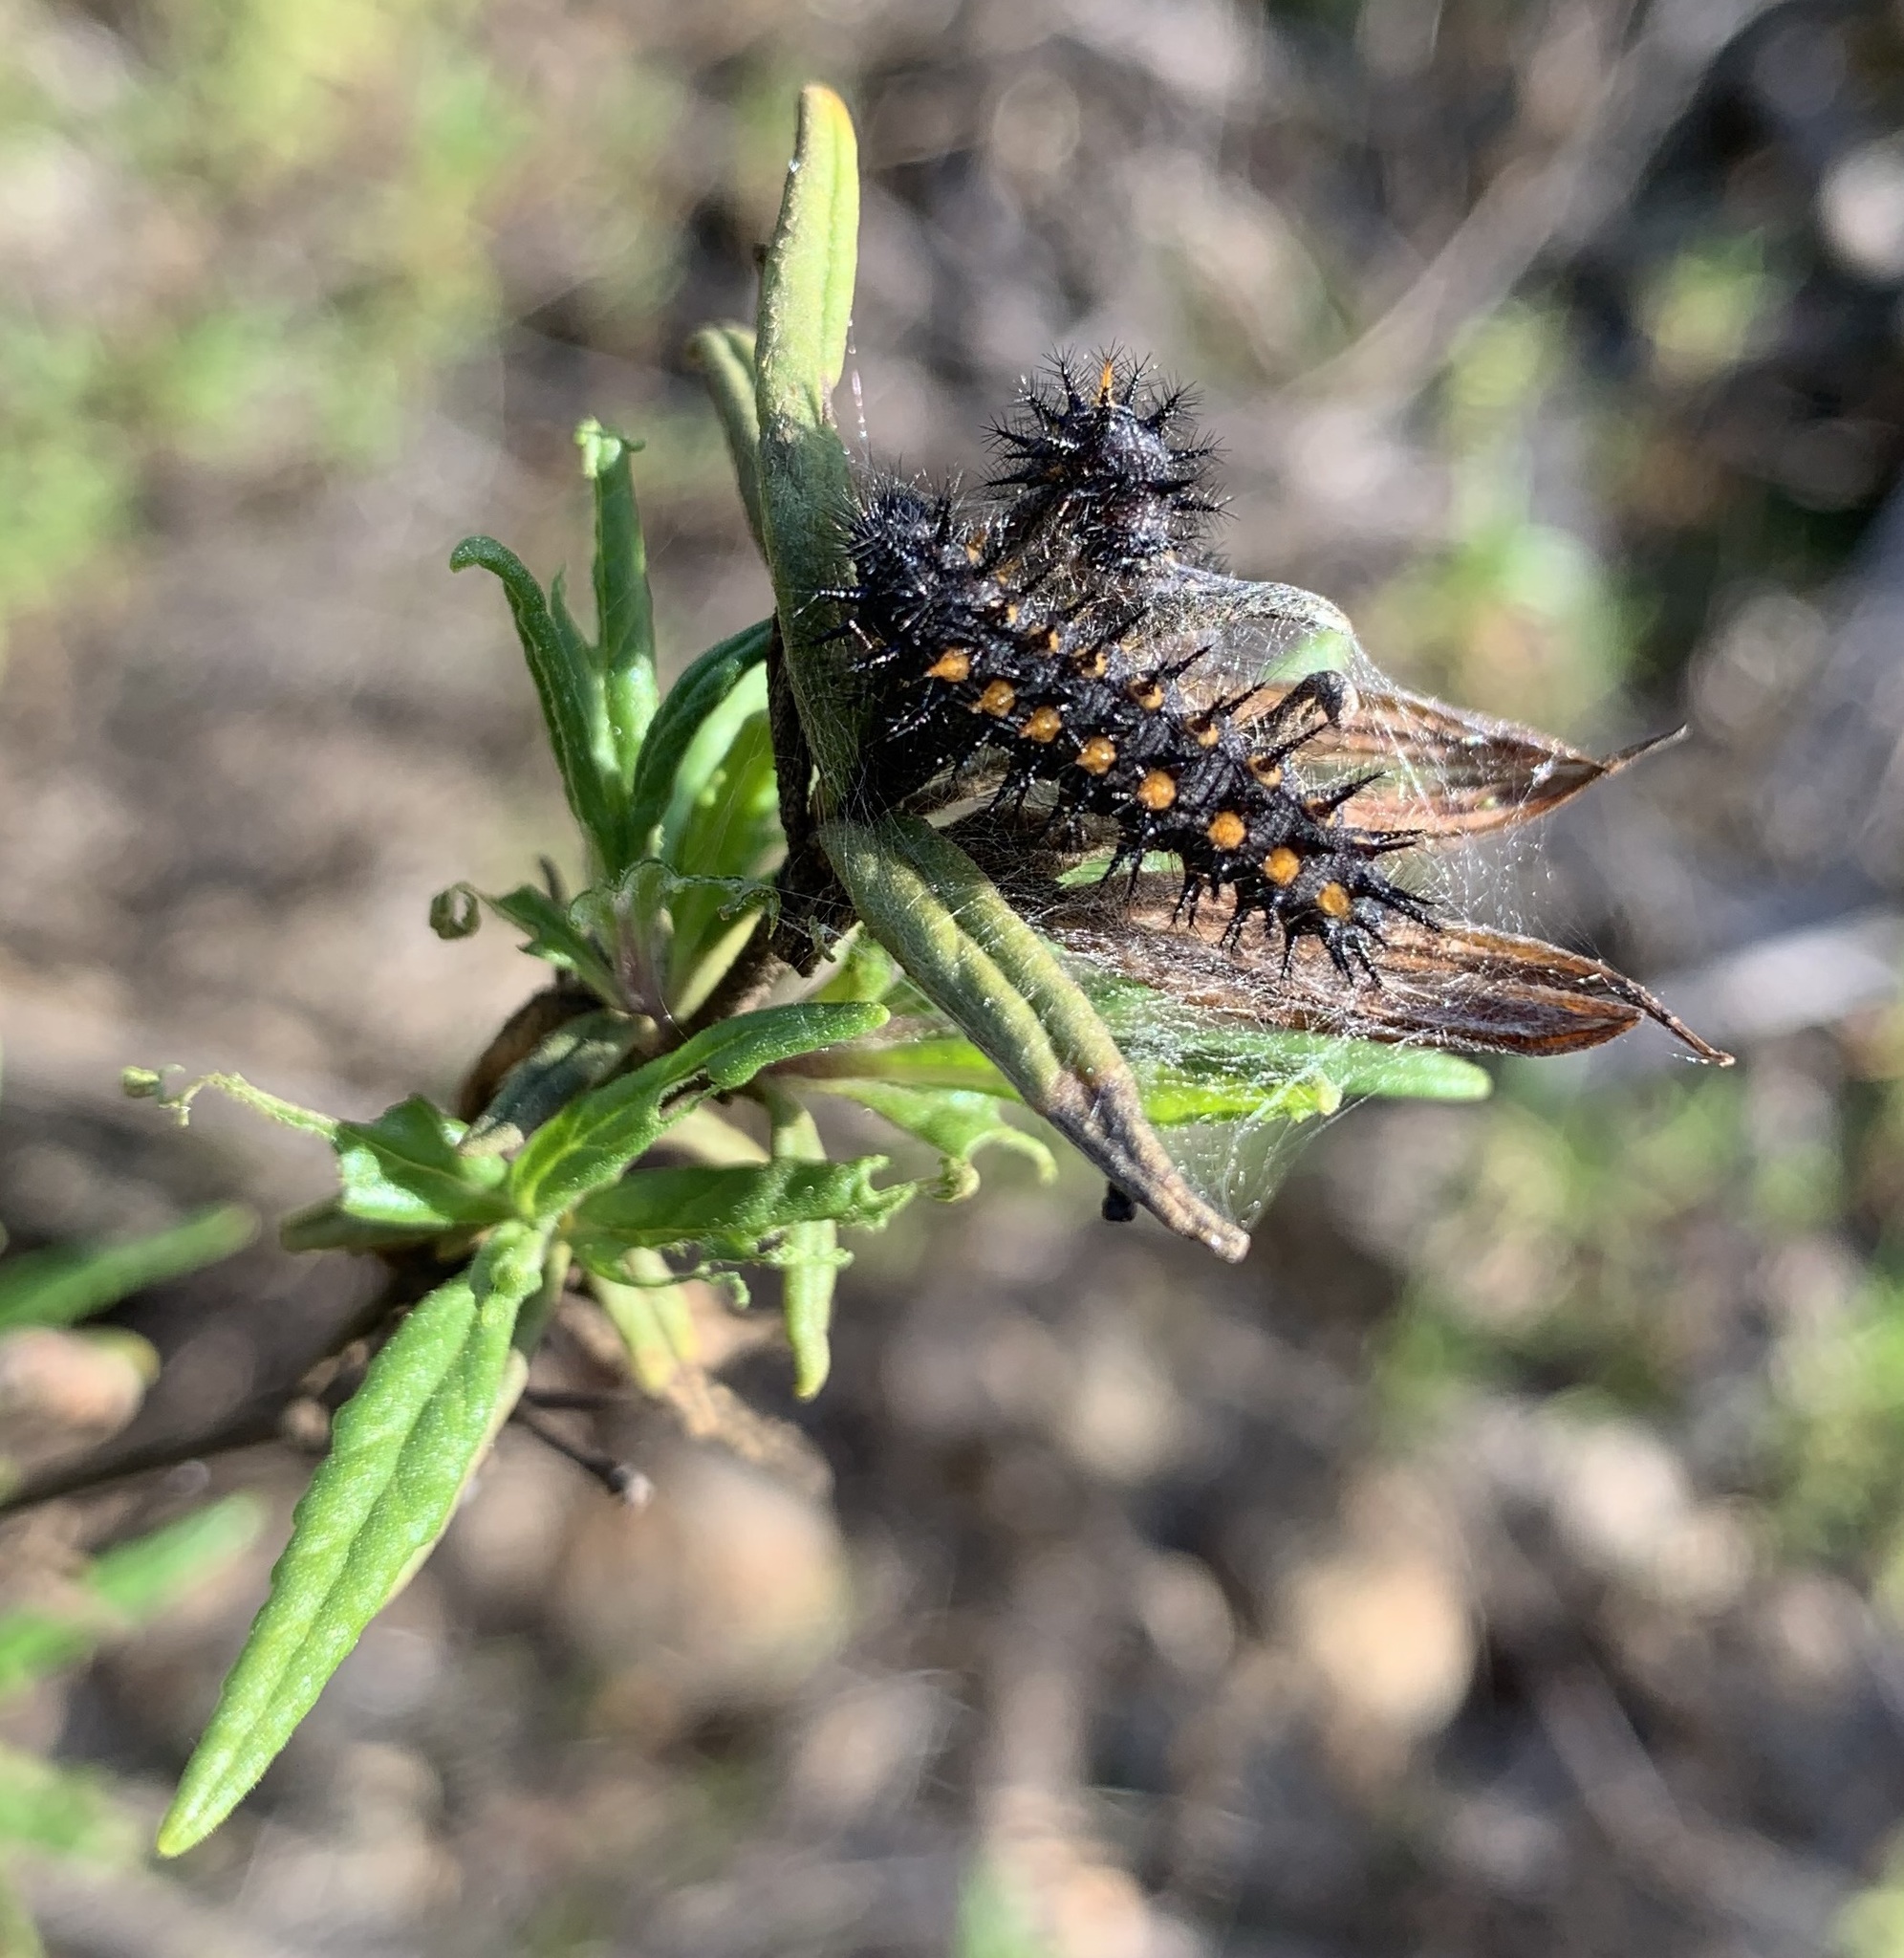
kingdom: Animalia
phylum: Arthropoda
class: Insecta
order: Lepidoptera
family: Nymphalidae
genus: Occidryas
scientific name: Occidryas chalcedona
